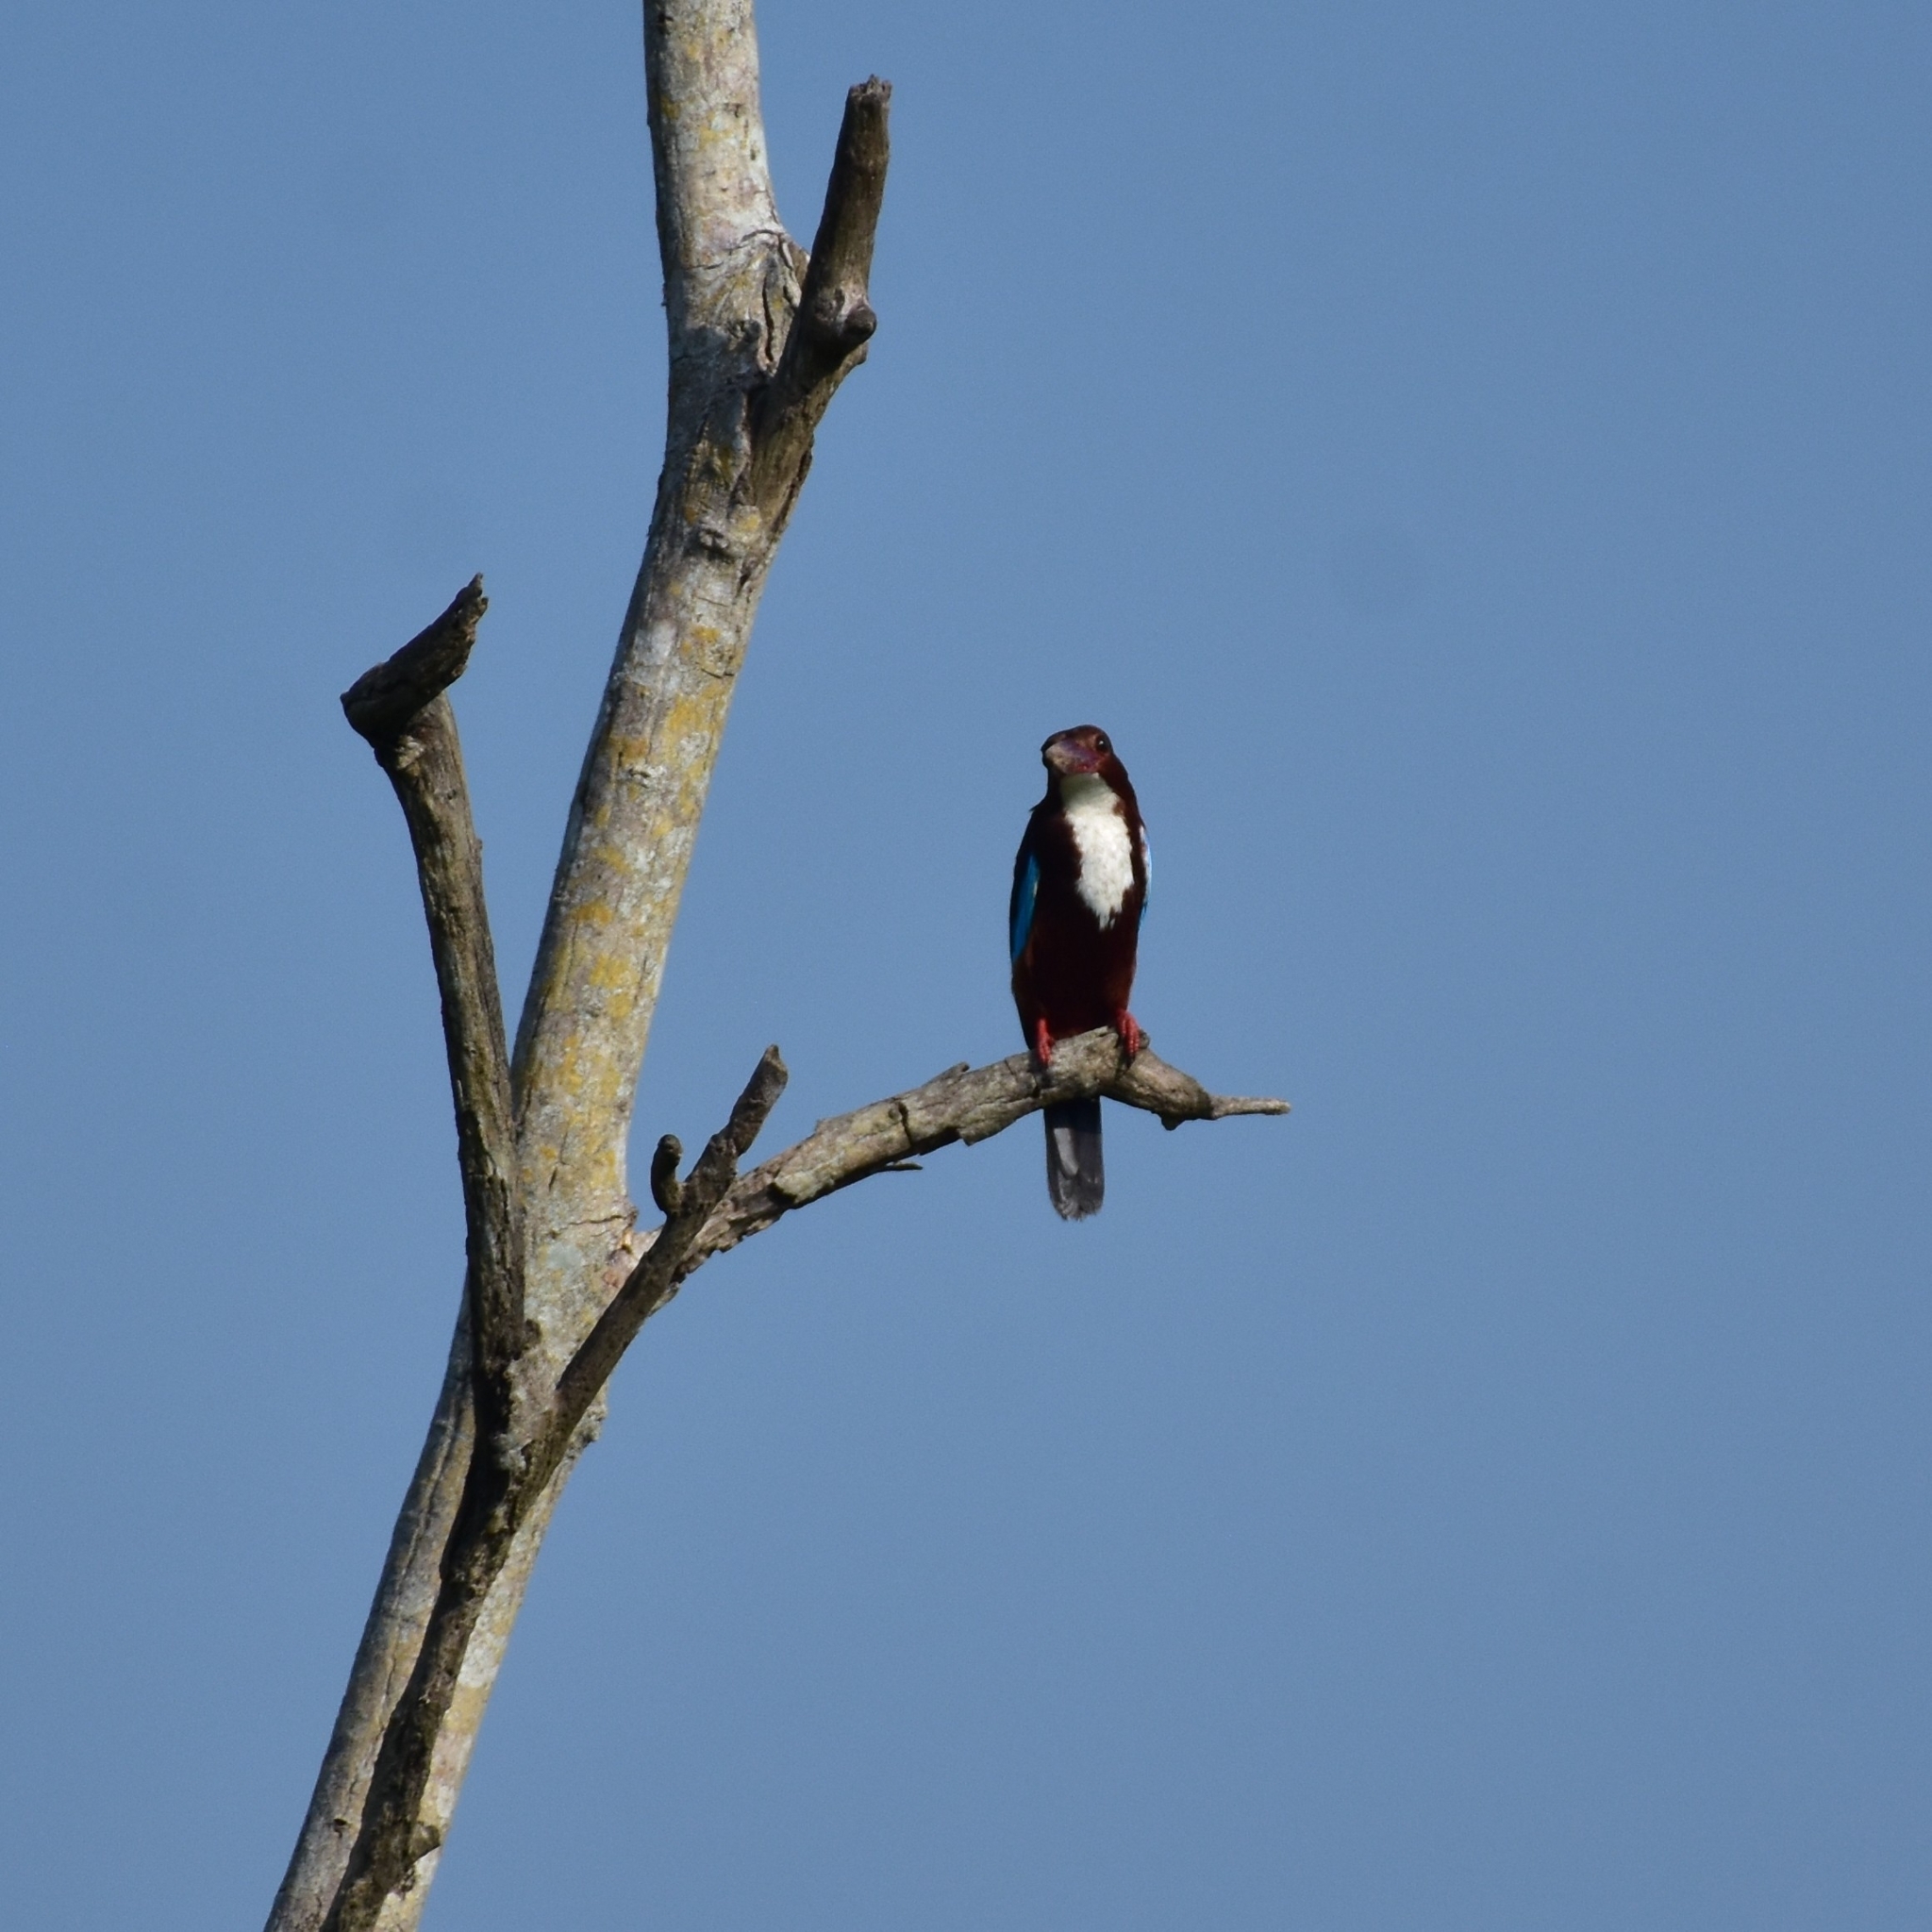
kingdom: Animalia
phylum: Chordata
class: Aves
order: Coraciiformes
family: Alcedinidae
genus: Halcyon
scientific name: Halcyon smyrnensis
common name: White-throated kingfisher
